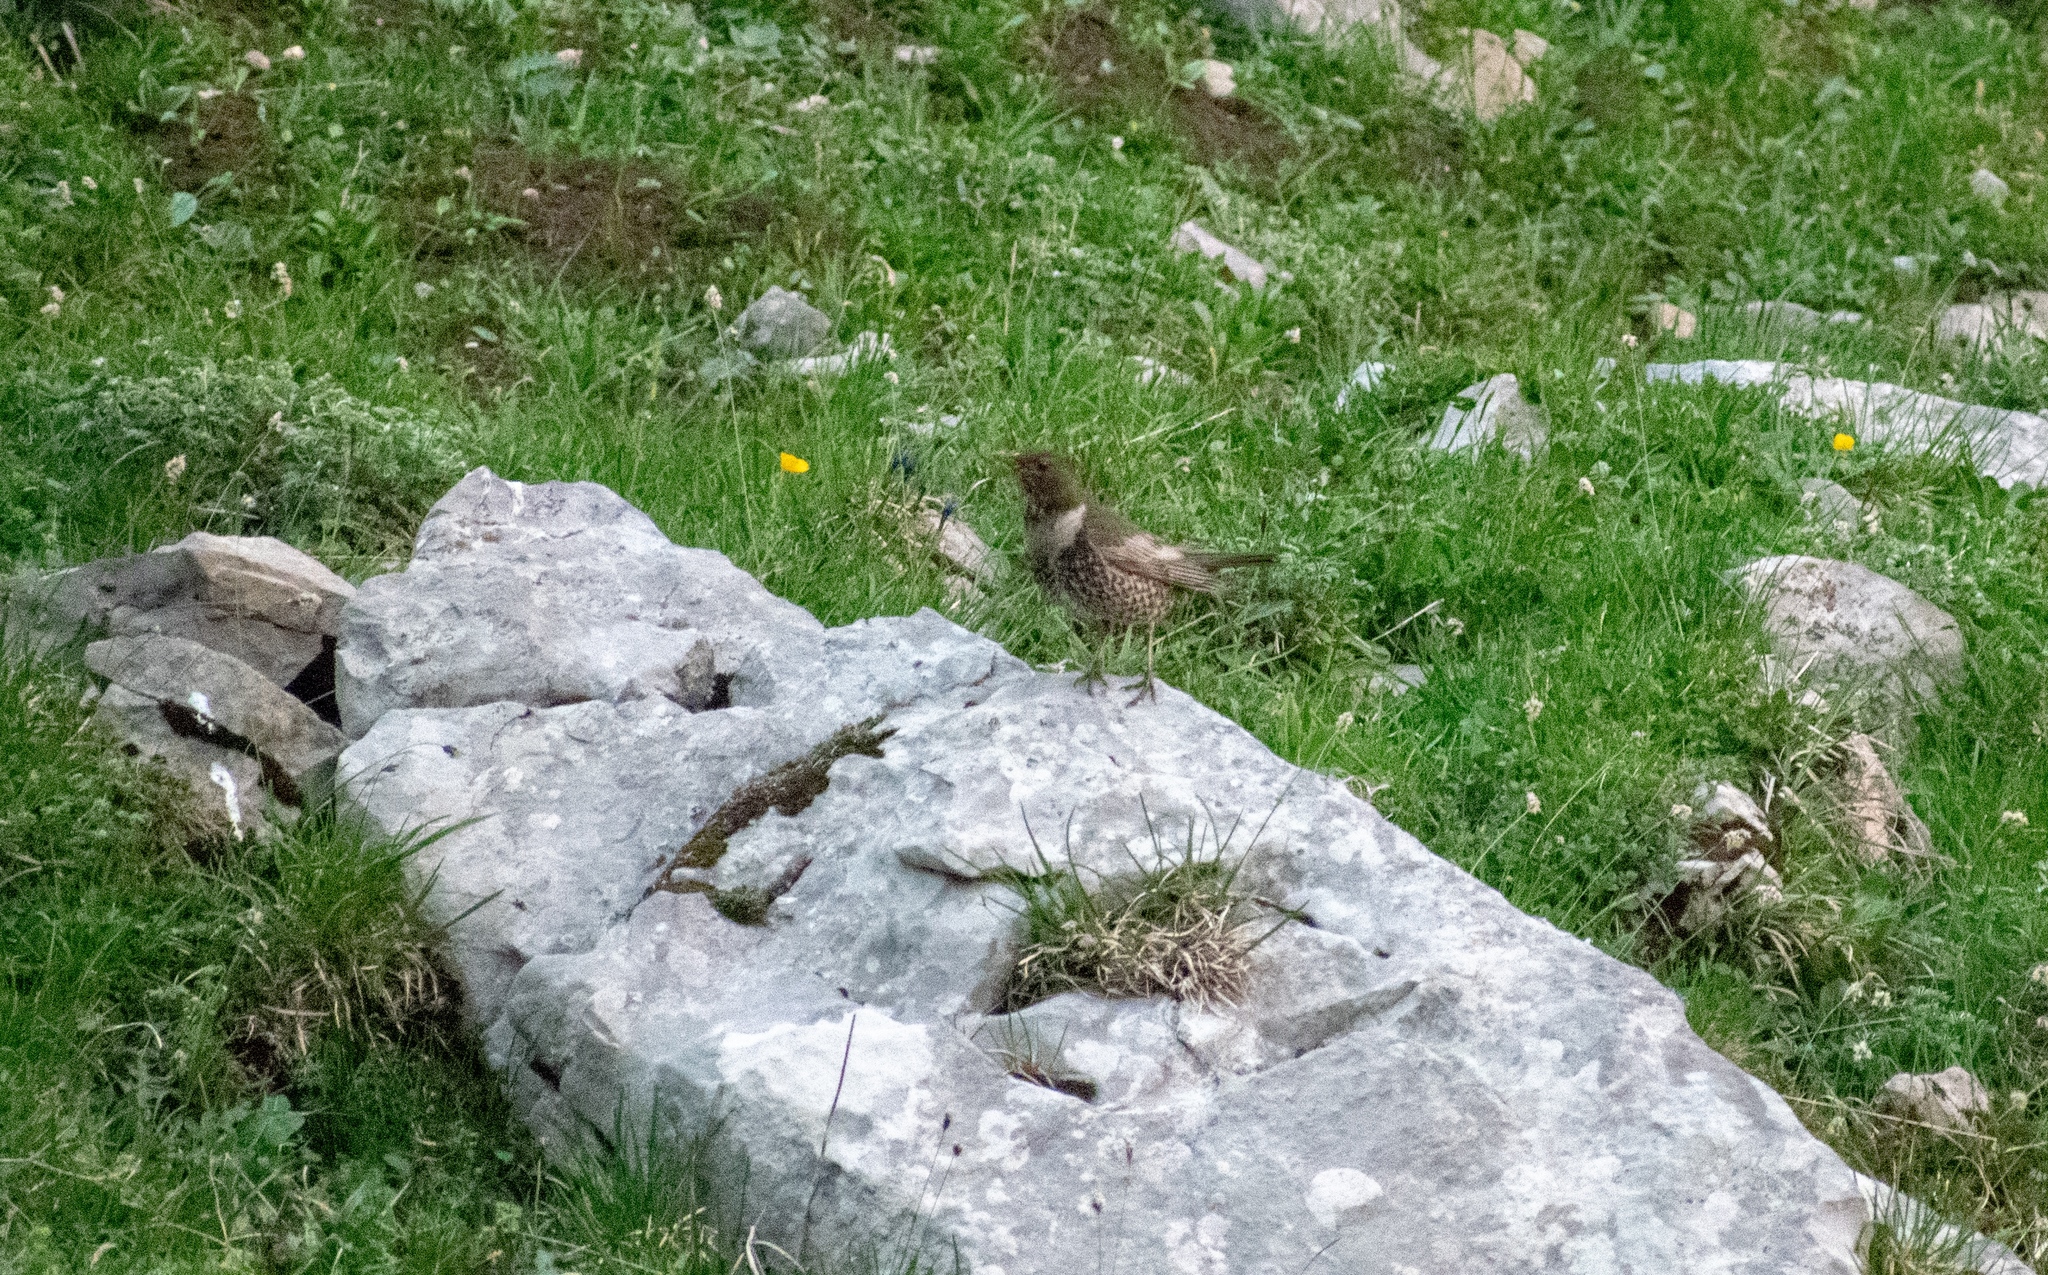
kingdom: Animalia
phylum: Chordata
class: Aves
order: Passeriformes
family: Turdidae
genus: Turdus
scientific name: Turdus torquatus
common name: Ring ouzel
